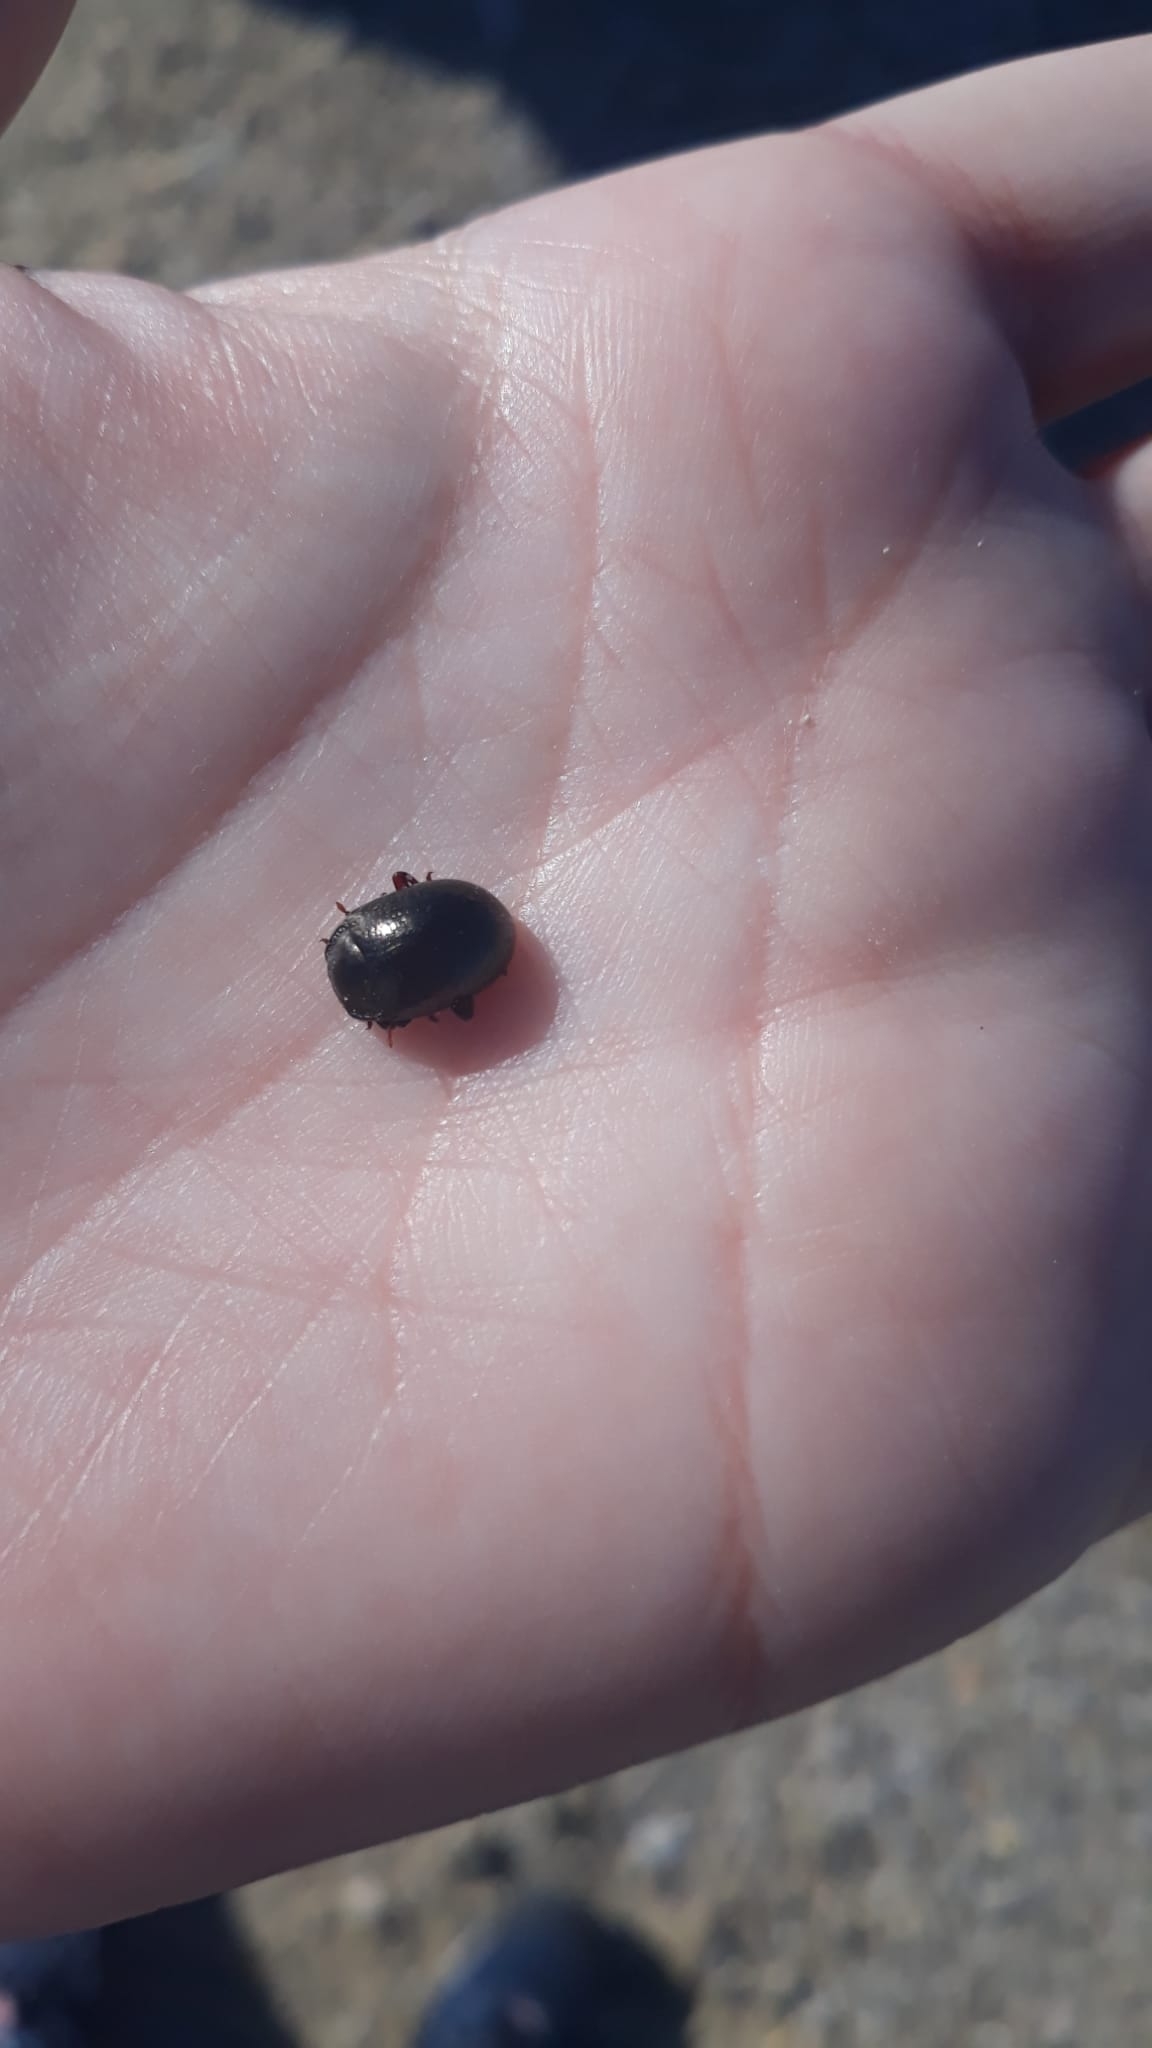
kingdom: Animalia
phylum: Arthropoda
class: Insecta
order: Coleoptera
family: Chrysomelidae
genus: Chrysolina
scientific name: Chrysolina bankii
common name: Leaf beetle
